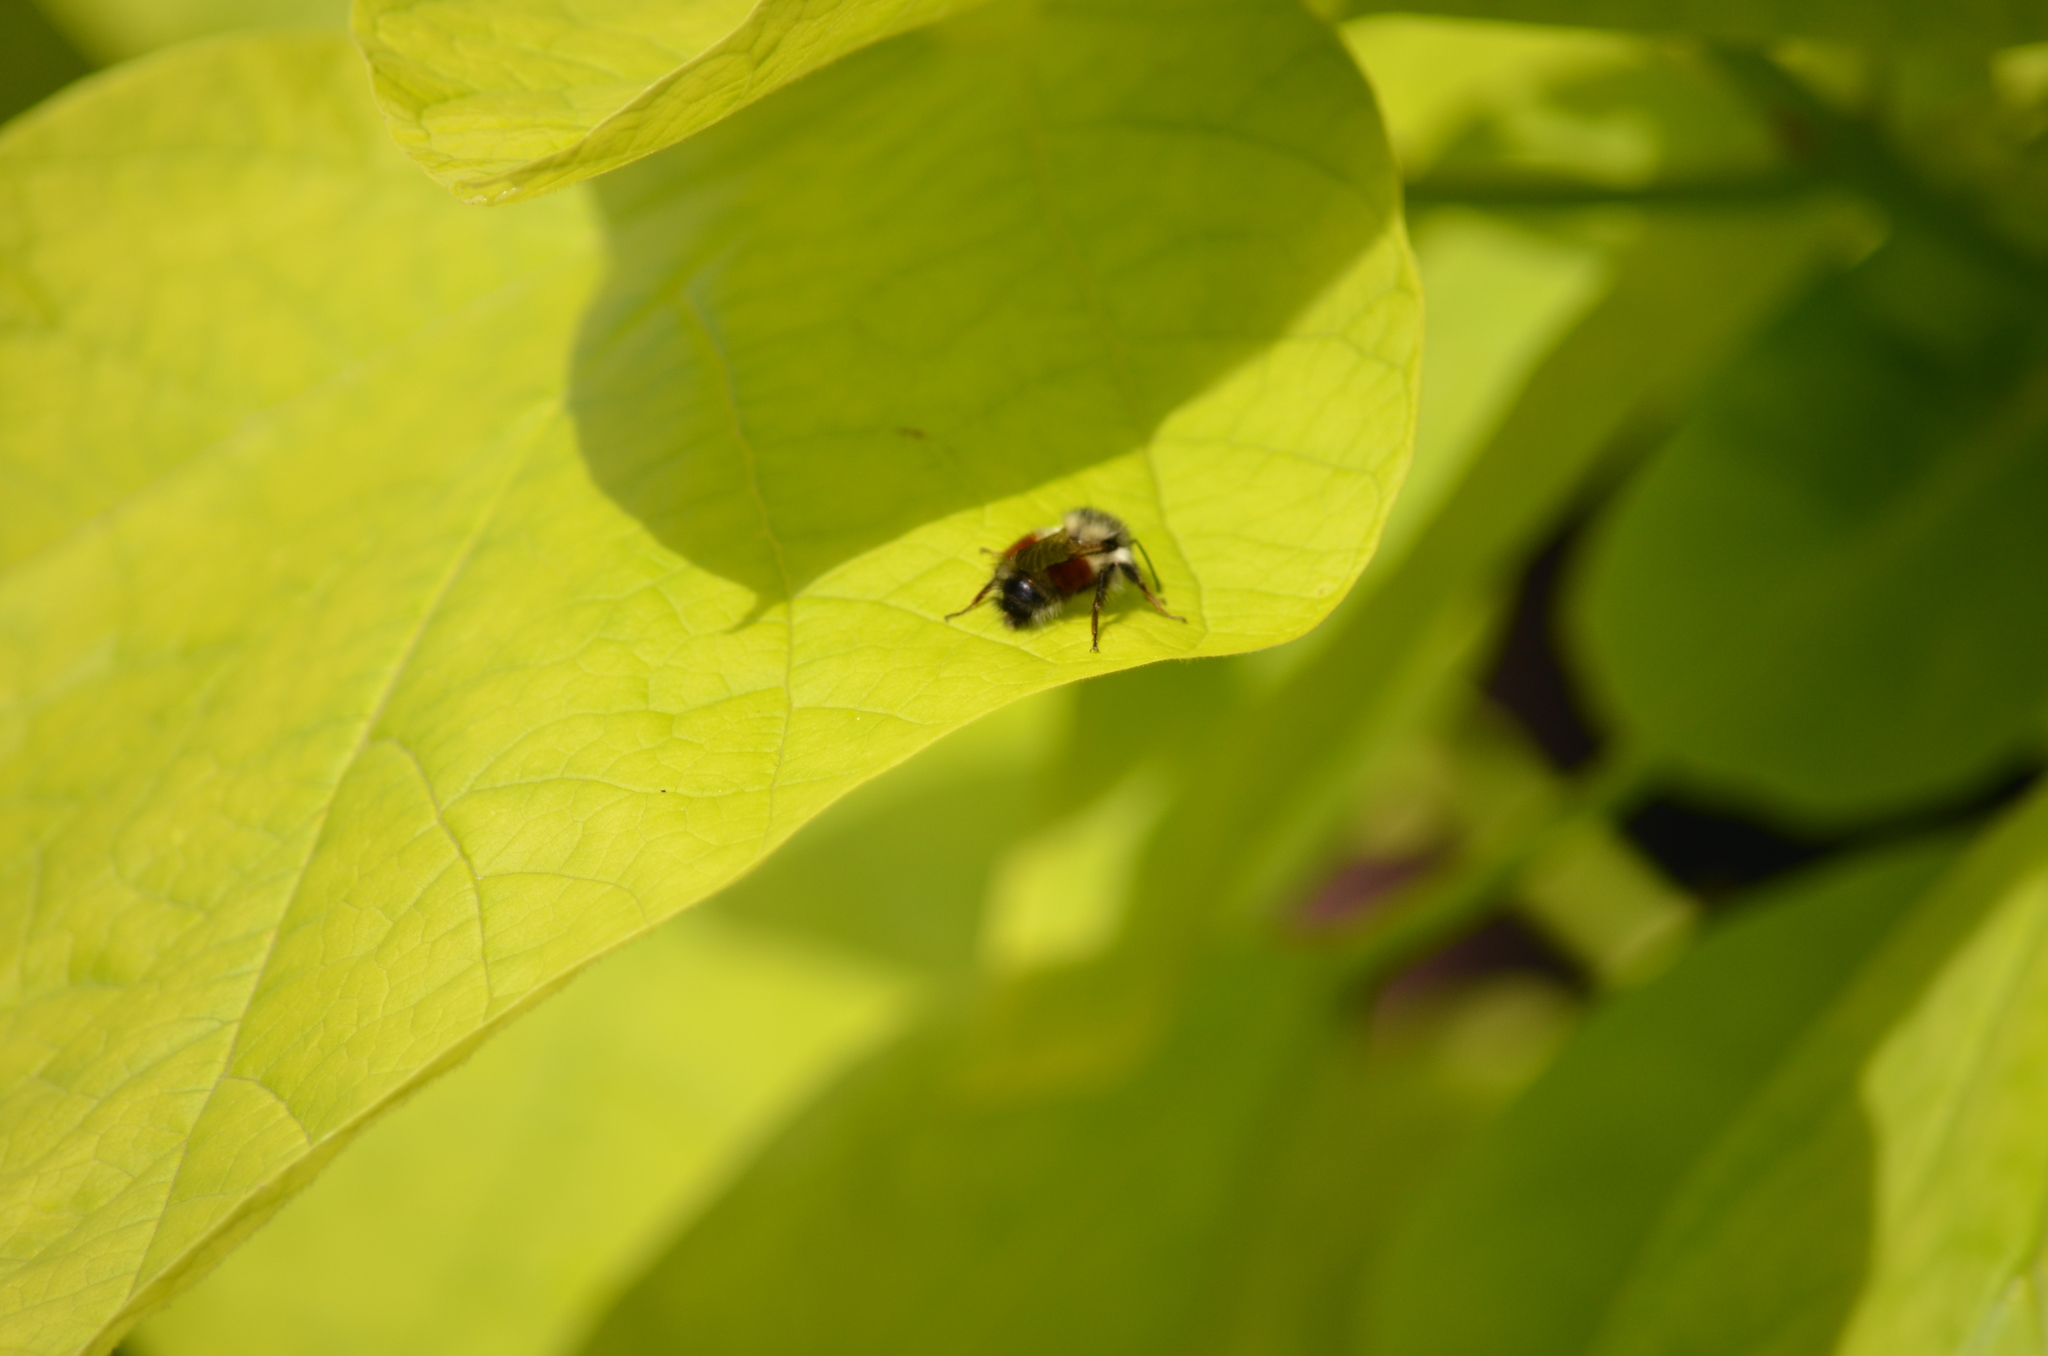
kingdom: Animalia
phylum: Arthropoda
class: Insecta
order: Hymenoptera
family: Apidae
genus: Bombus
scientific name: Bombus melanopygus
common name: Black tail bumble bee
